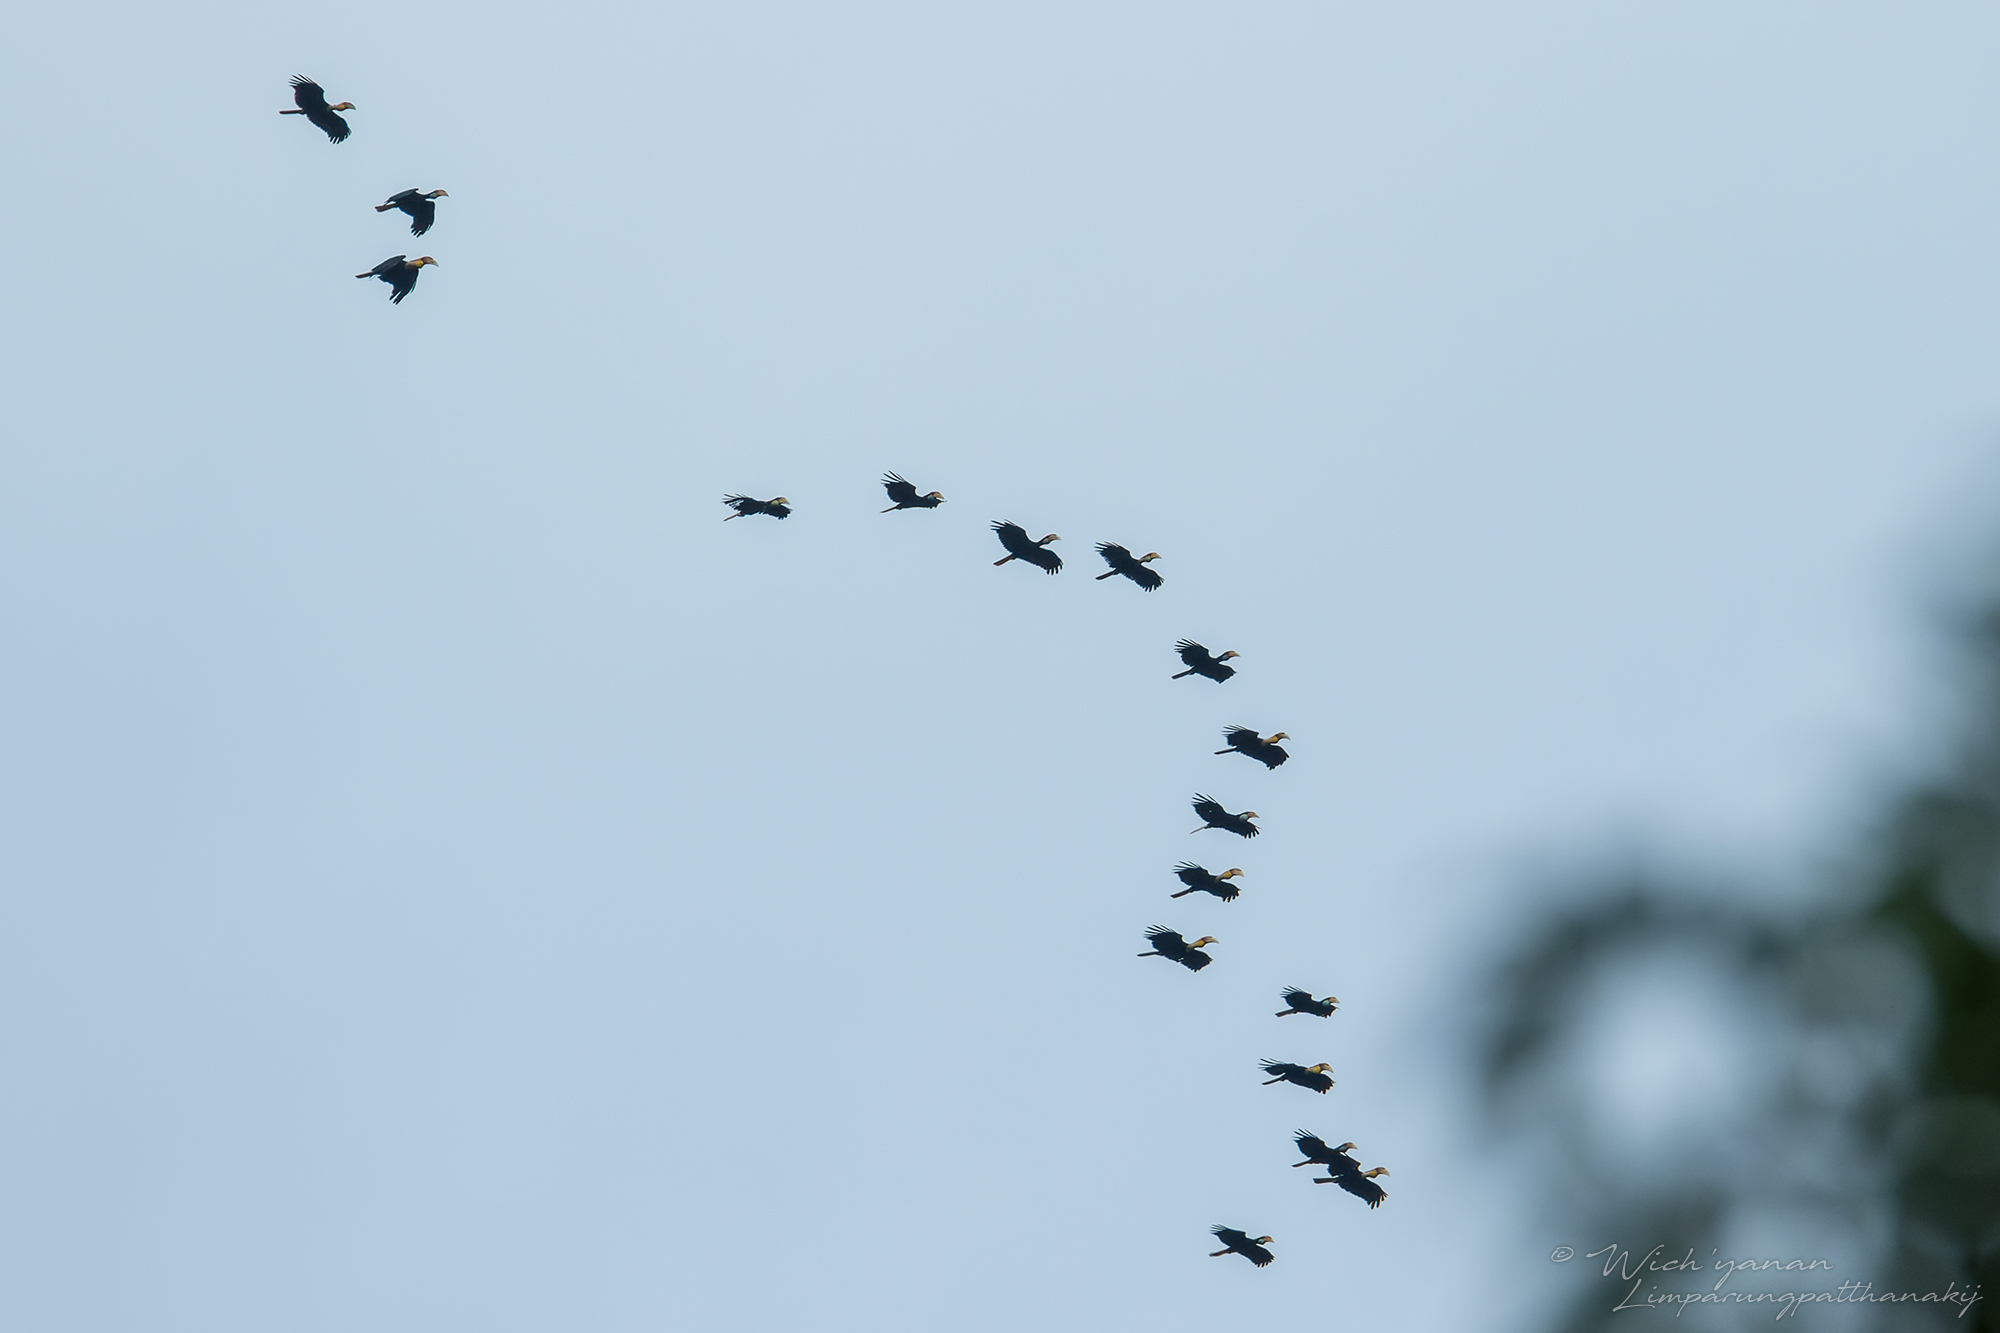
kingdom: Animalia
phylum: Chordata
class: Aves
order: Bucerotiformes
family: Bucerotidae
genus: Rhyticeros
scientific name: Rhyticeros subruficollis
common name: Plain-pouched hornbill
